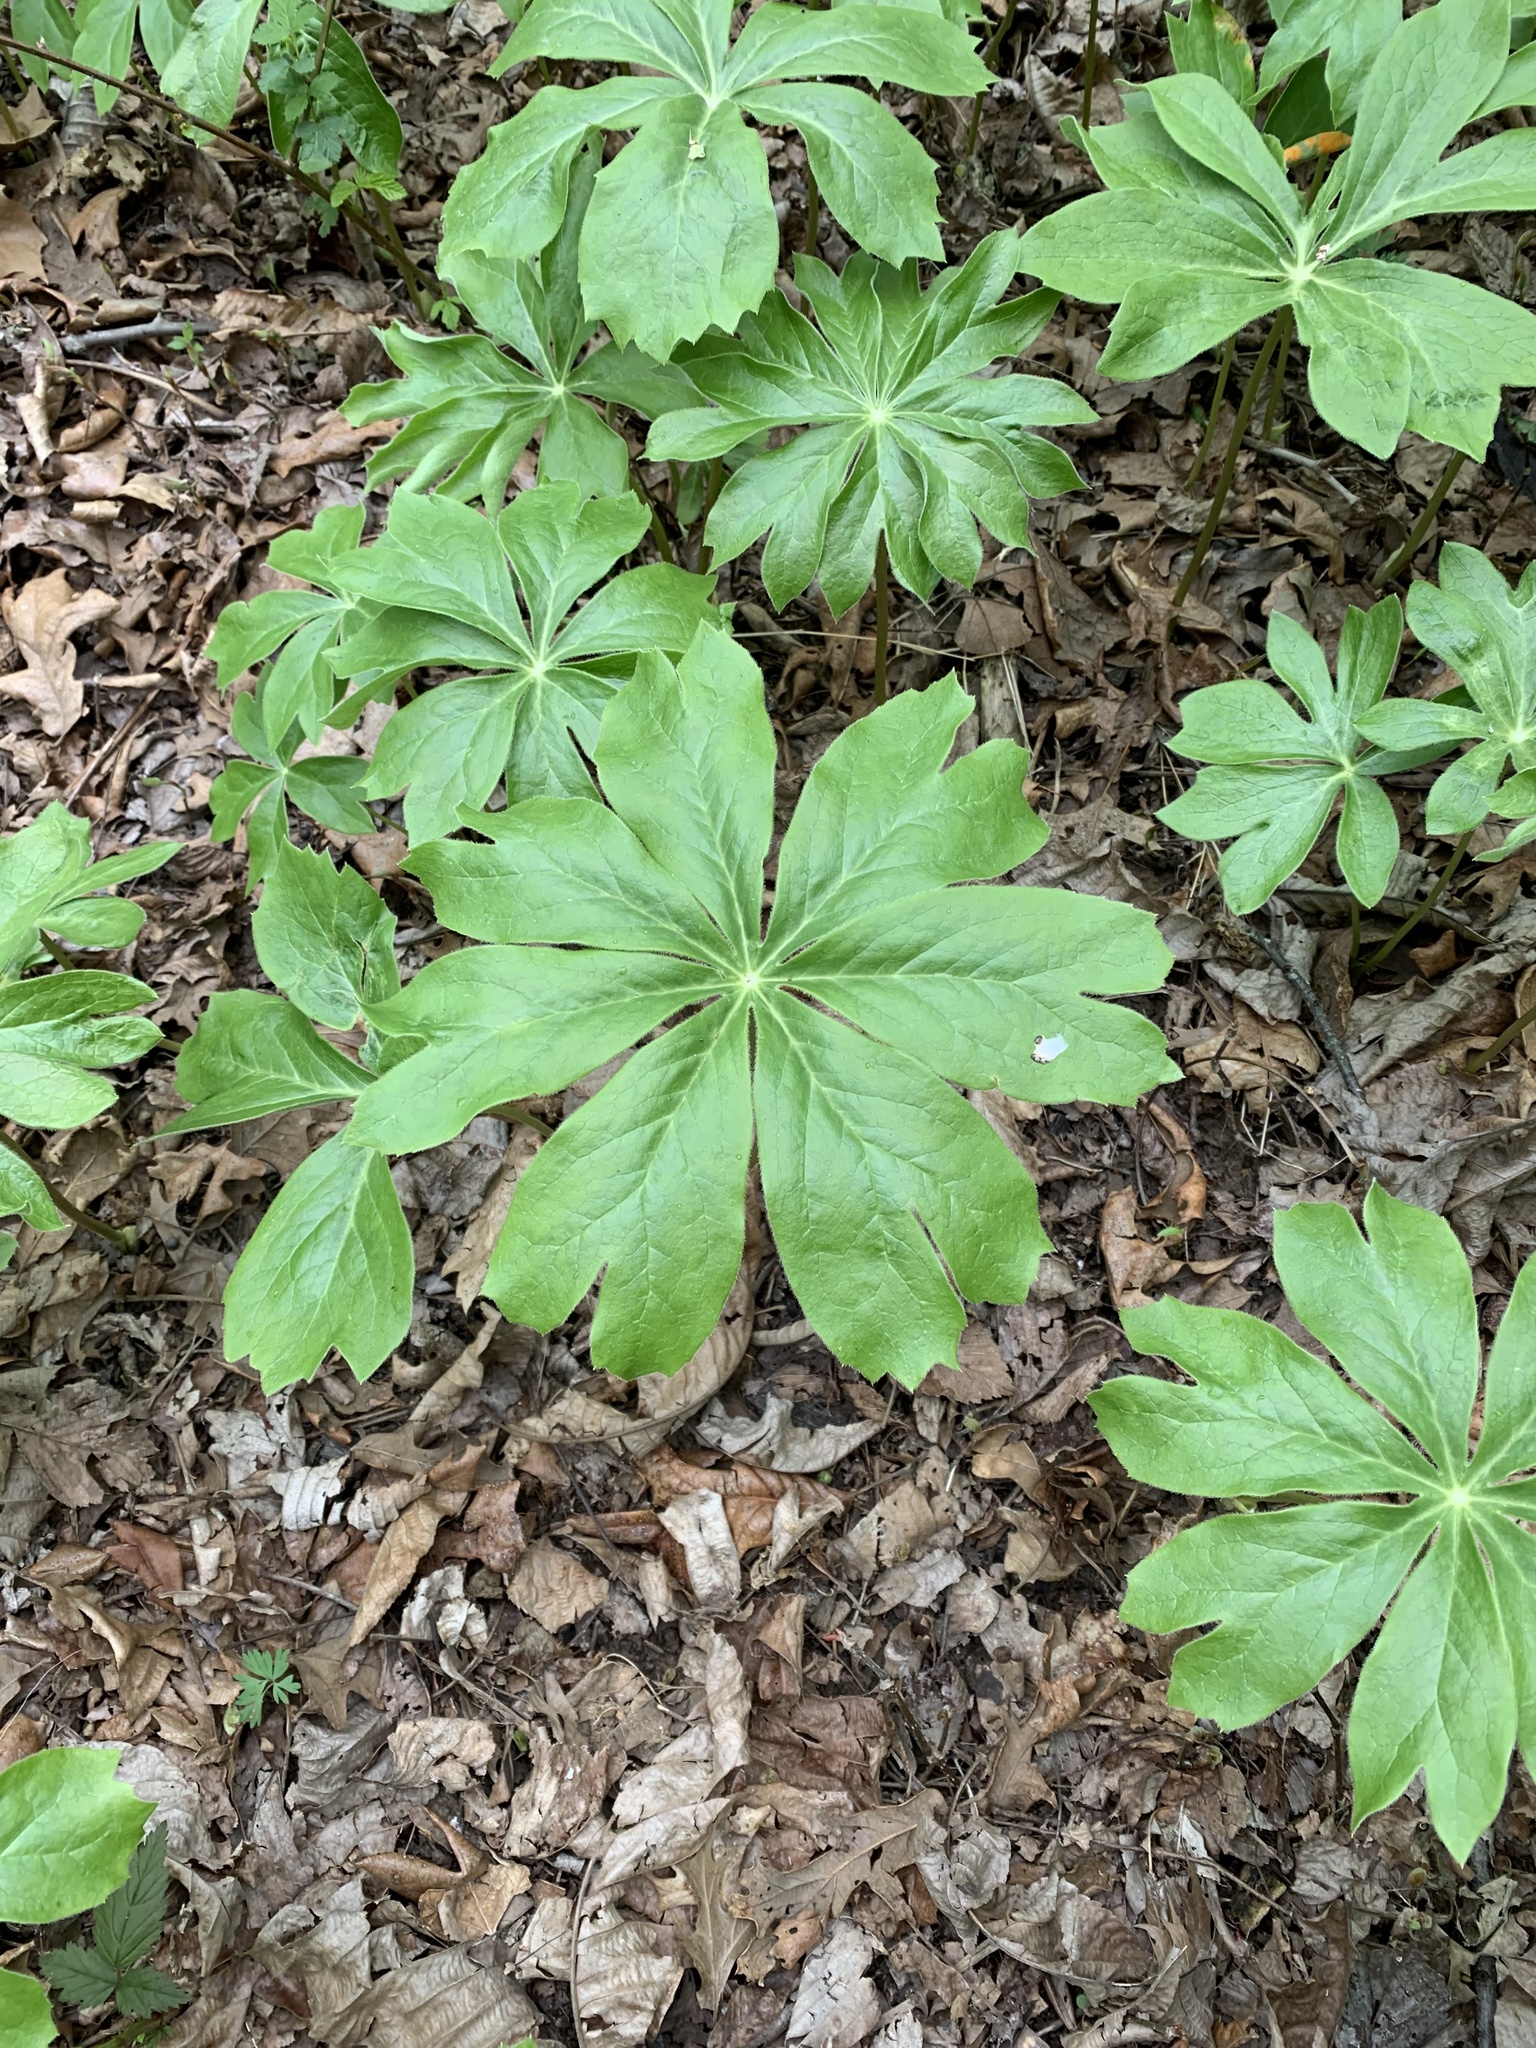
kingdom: Plantae
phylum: Tracheophyta
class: Magnoliopsida
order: Ranunculales
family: Berberidaceae
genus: Podophyllum
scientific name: Podophyllum peltatum
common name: Wild mandrake
